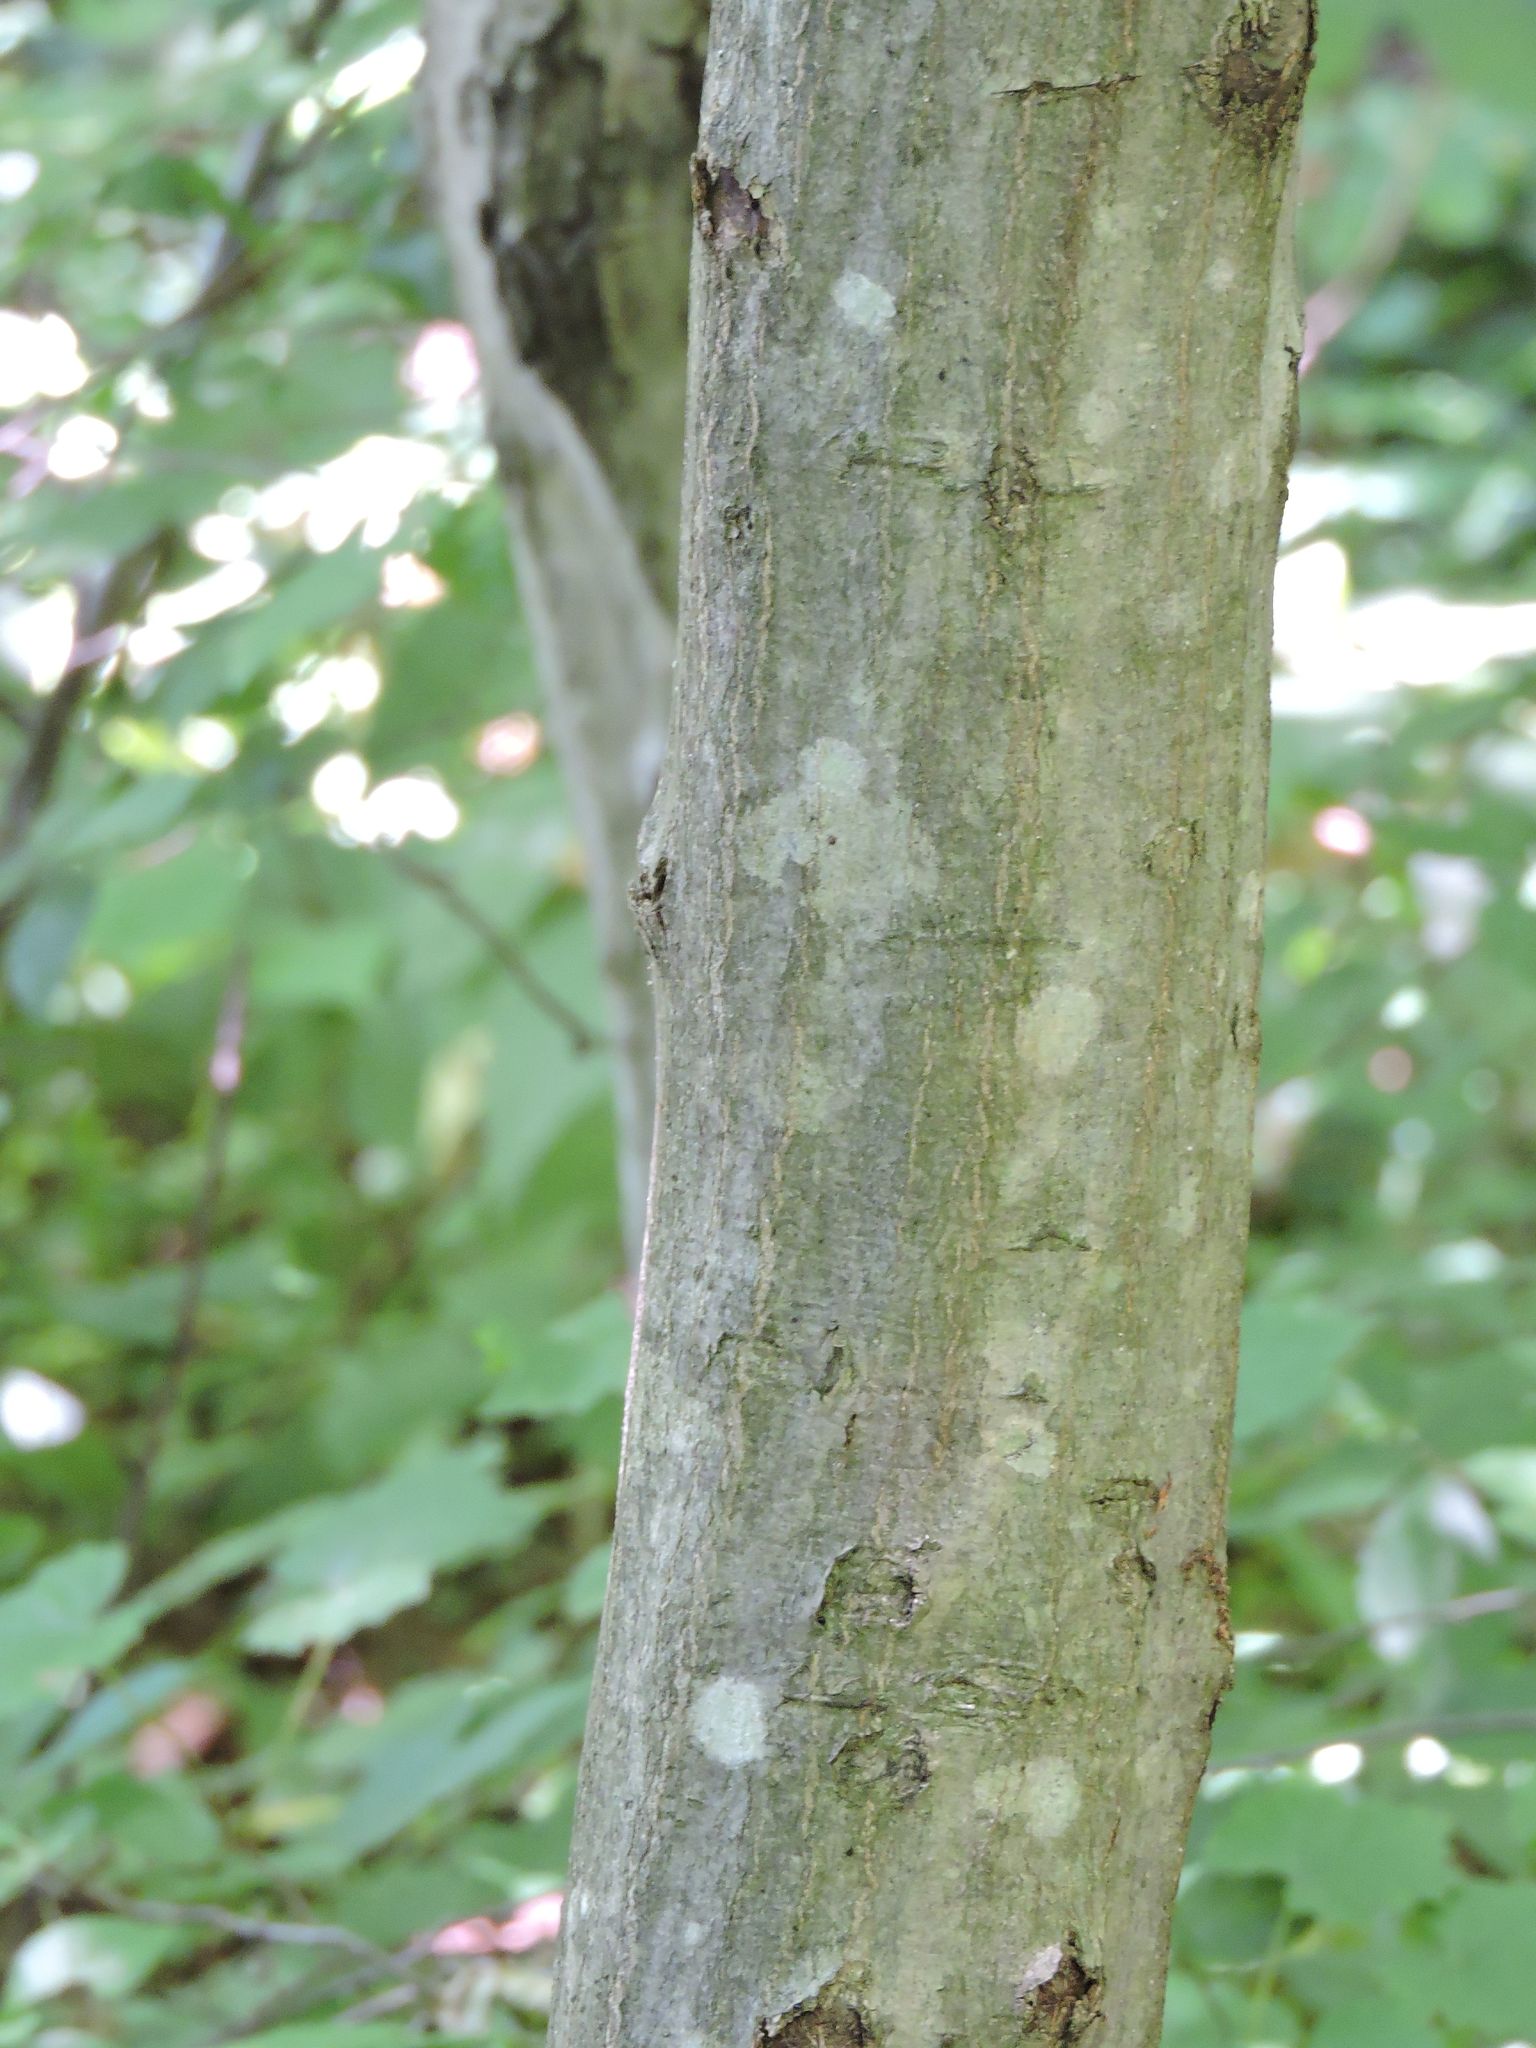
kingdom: Plantae
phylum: Tracheophyta
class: Magnoliopsida
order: Fagales
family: Betulaceae
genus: Carpinus
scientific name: Carpinus caroliniana
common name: American hornbeam
